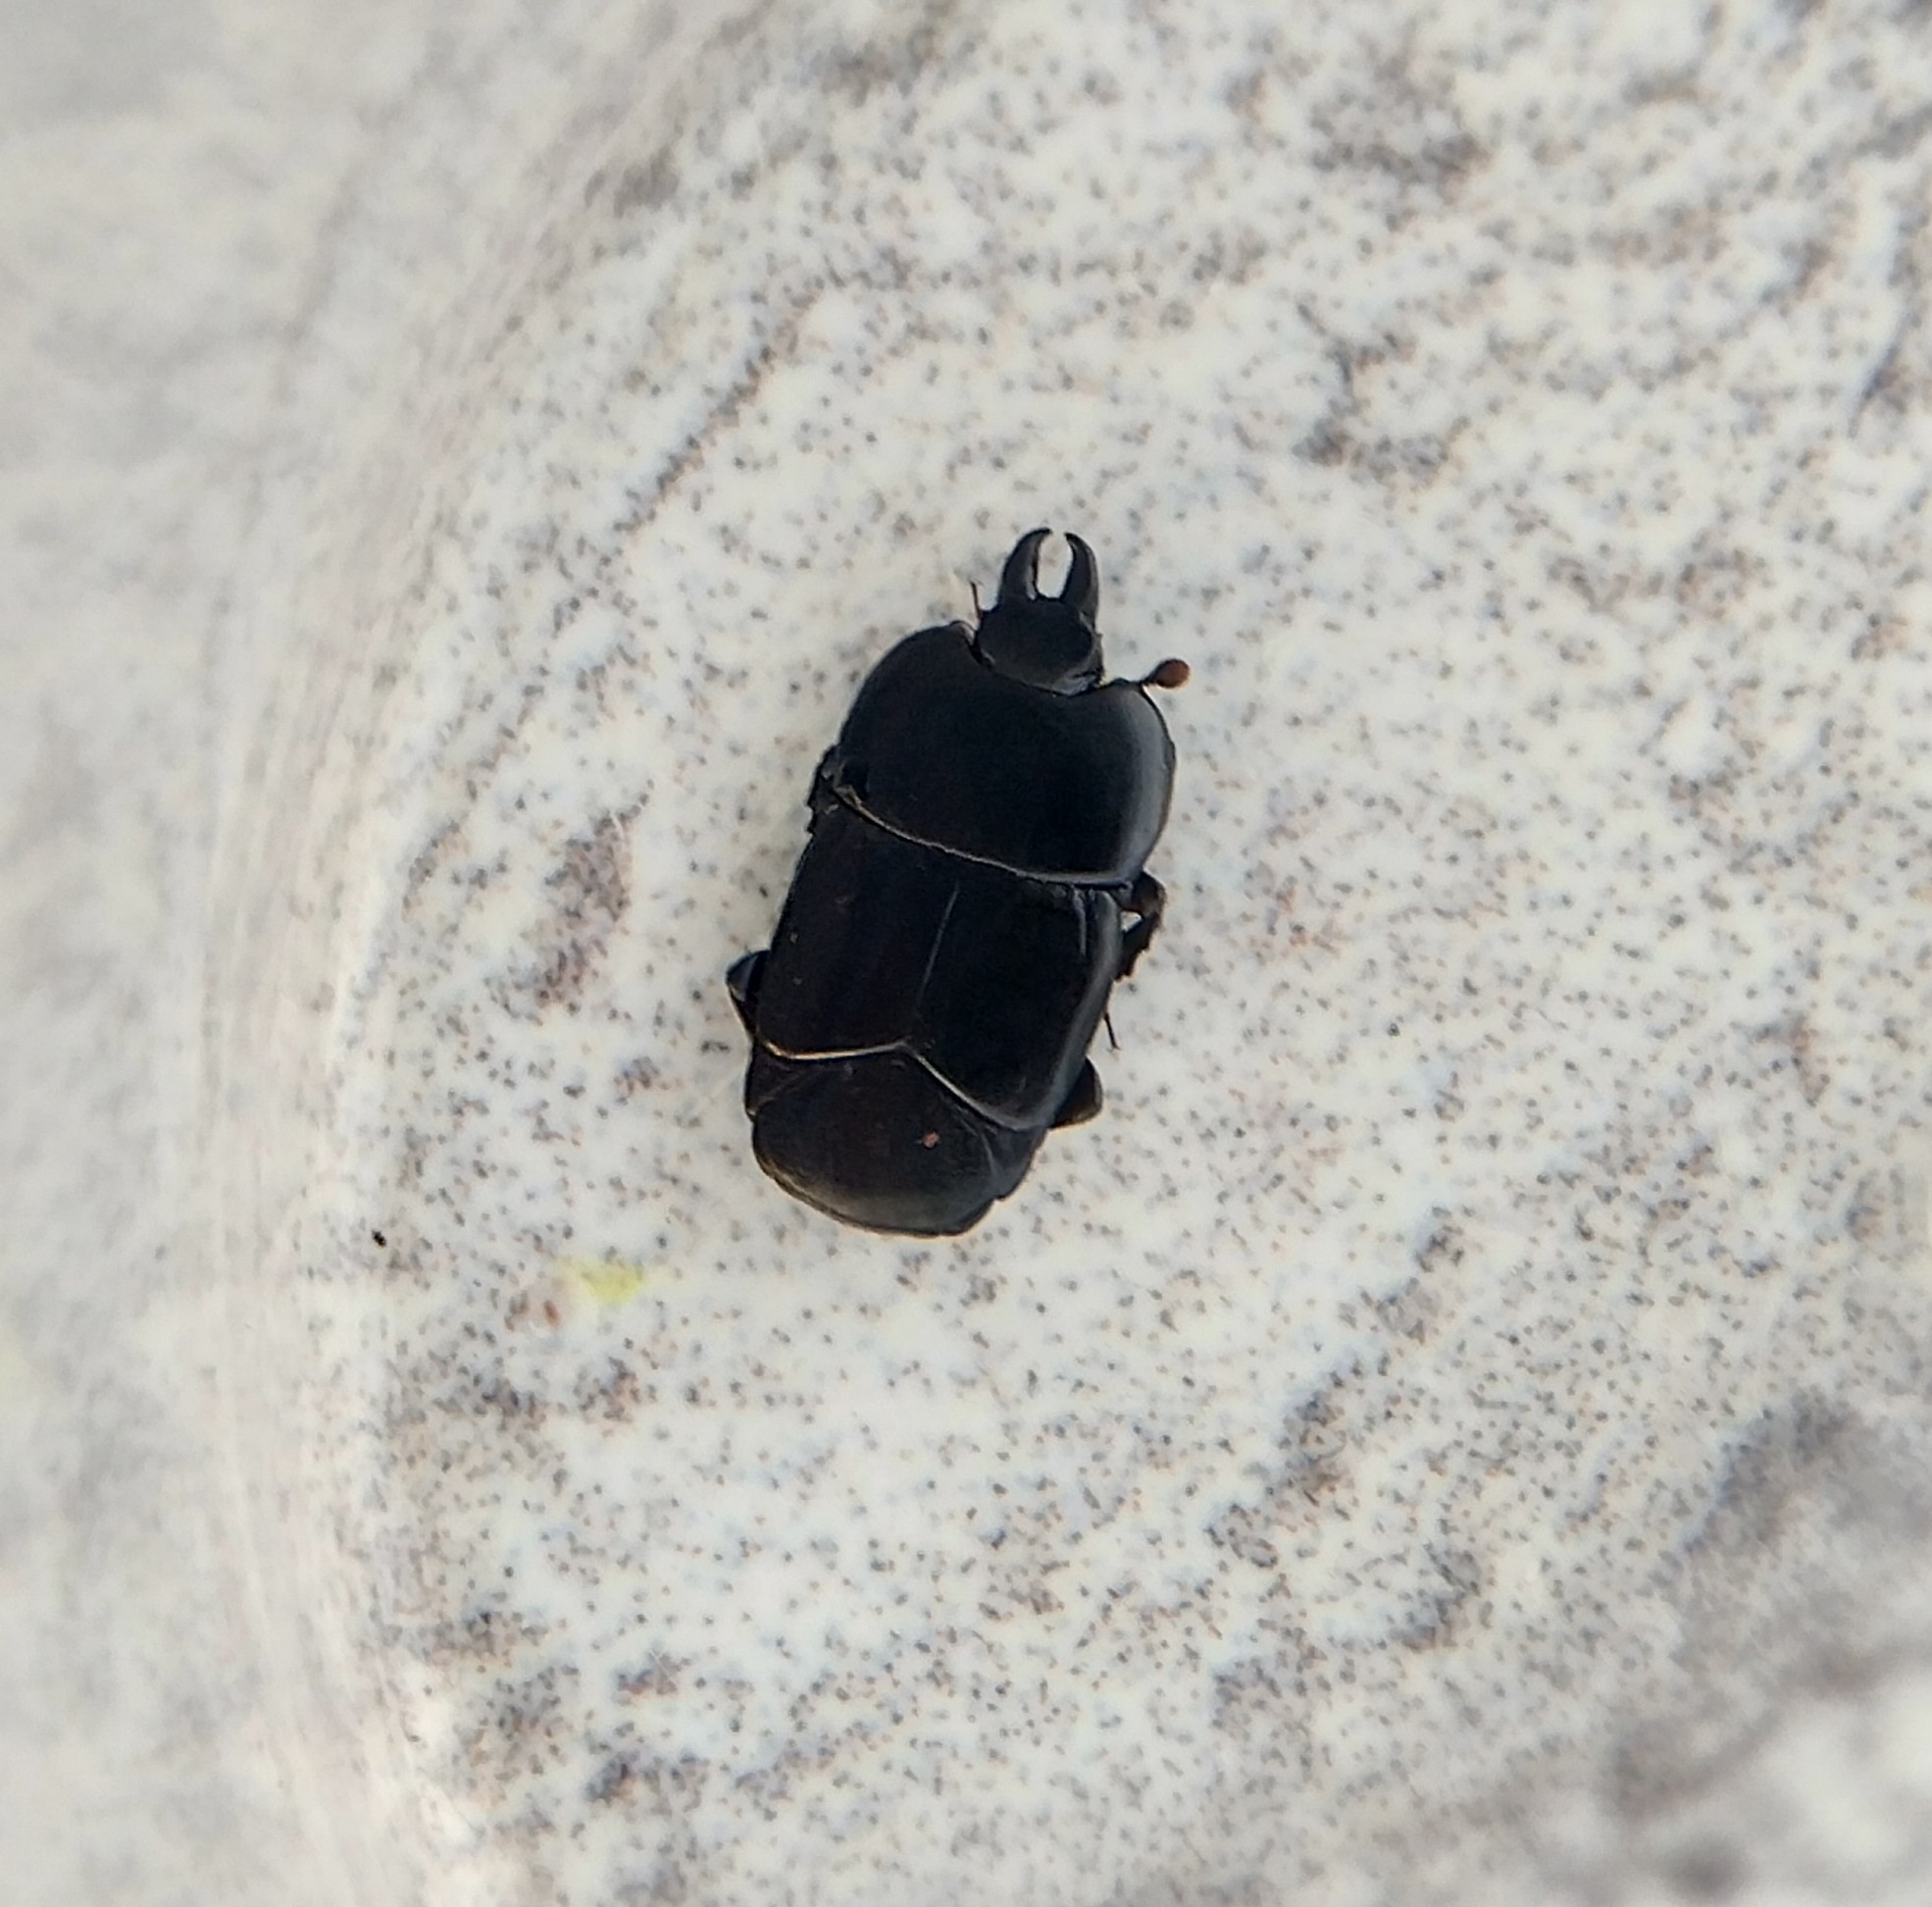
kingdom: Animalia
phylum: Arthropoda
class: Insecta
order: Coleoptera
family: Histeridae
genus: Hololepta
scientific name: Hololepta plana
